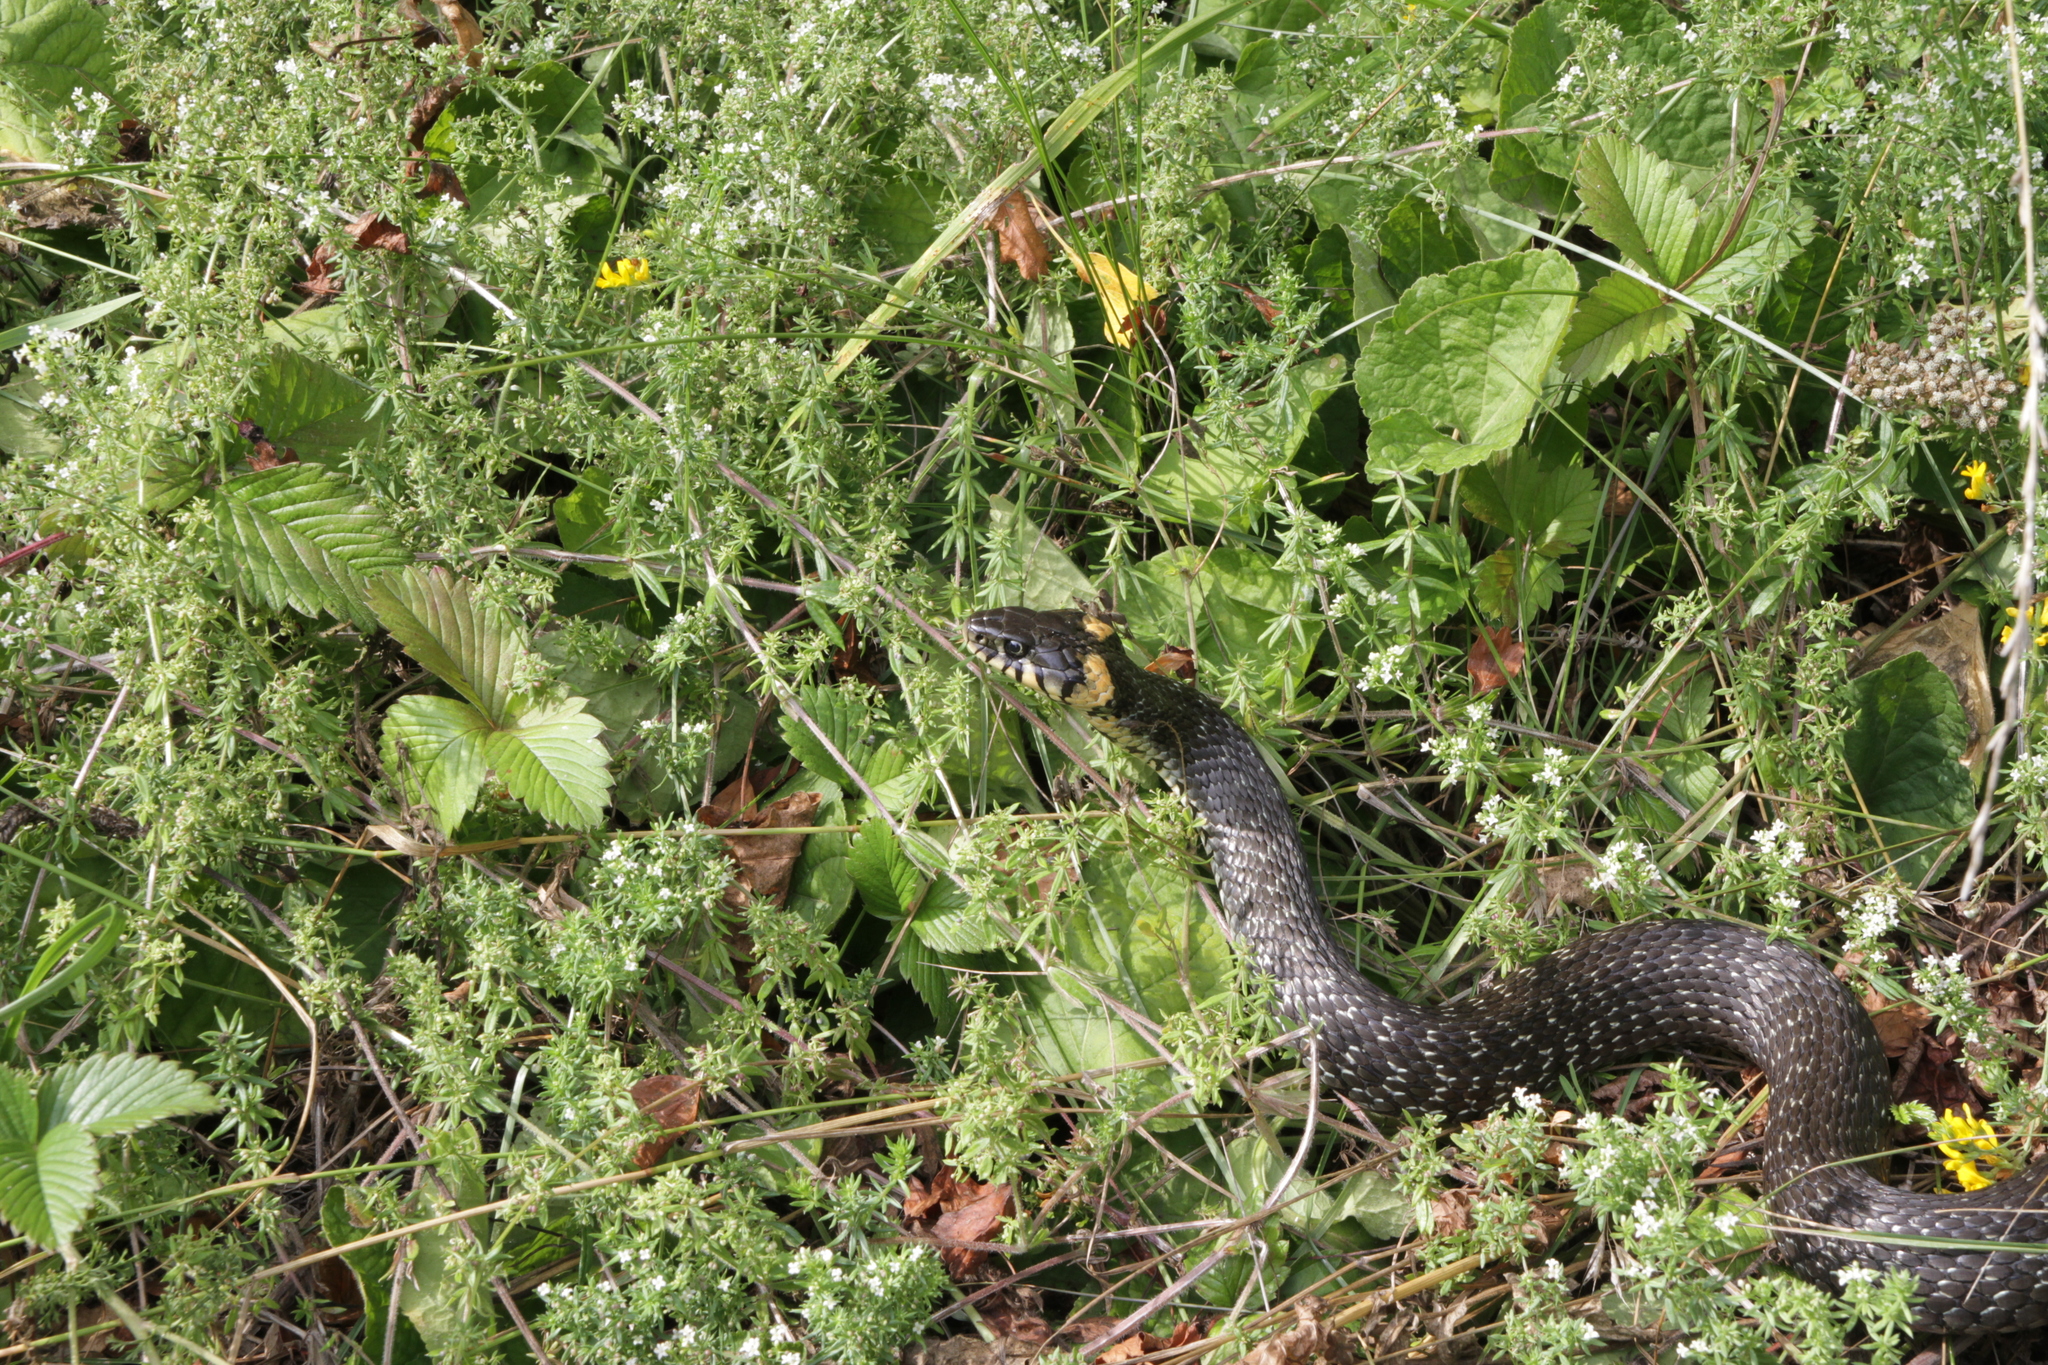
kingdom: Animalia
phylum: Chordata
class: Squamata
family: Colubridae
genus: Natrix
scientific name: Natrix natrix
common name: Grass snake
